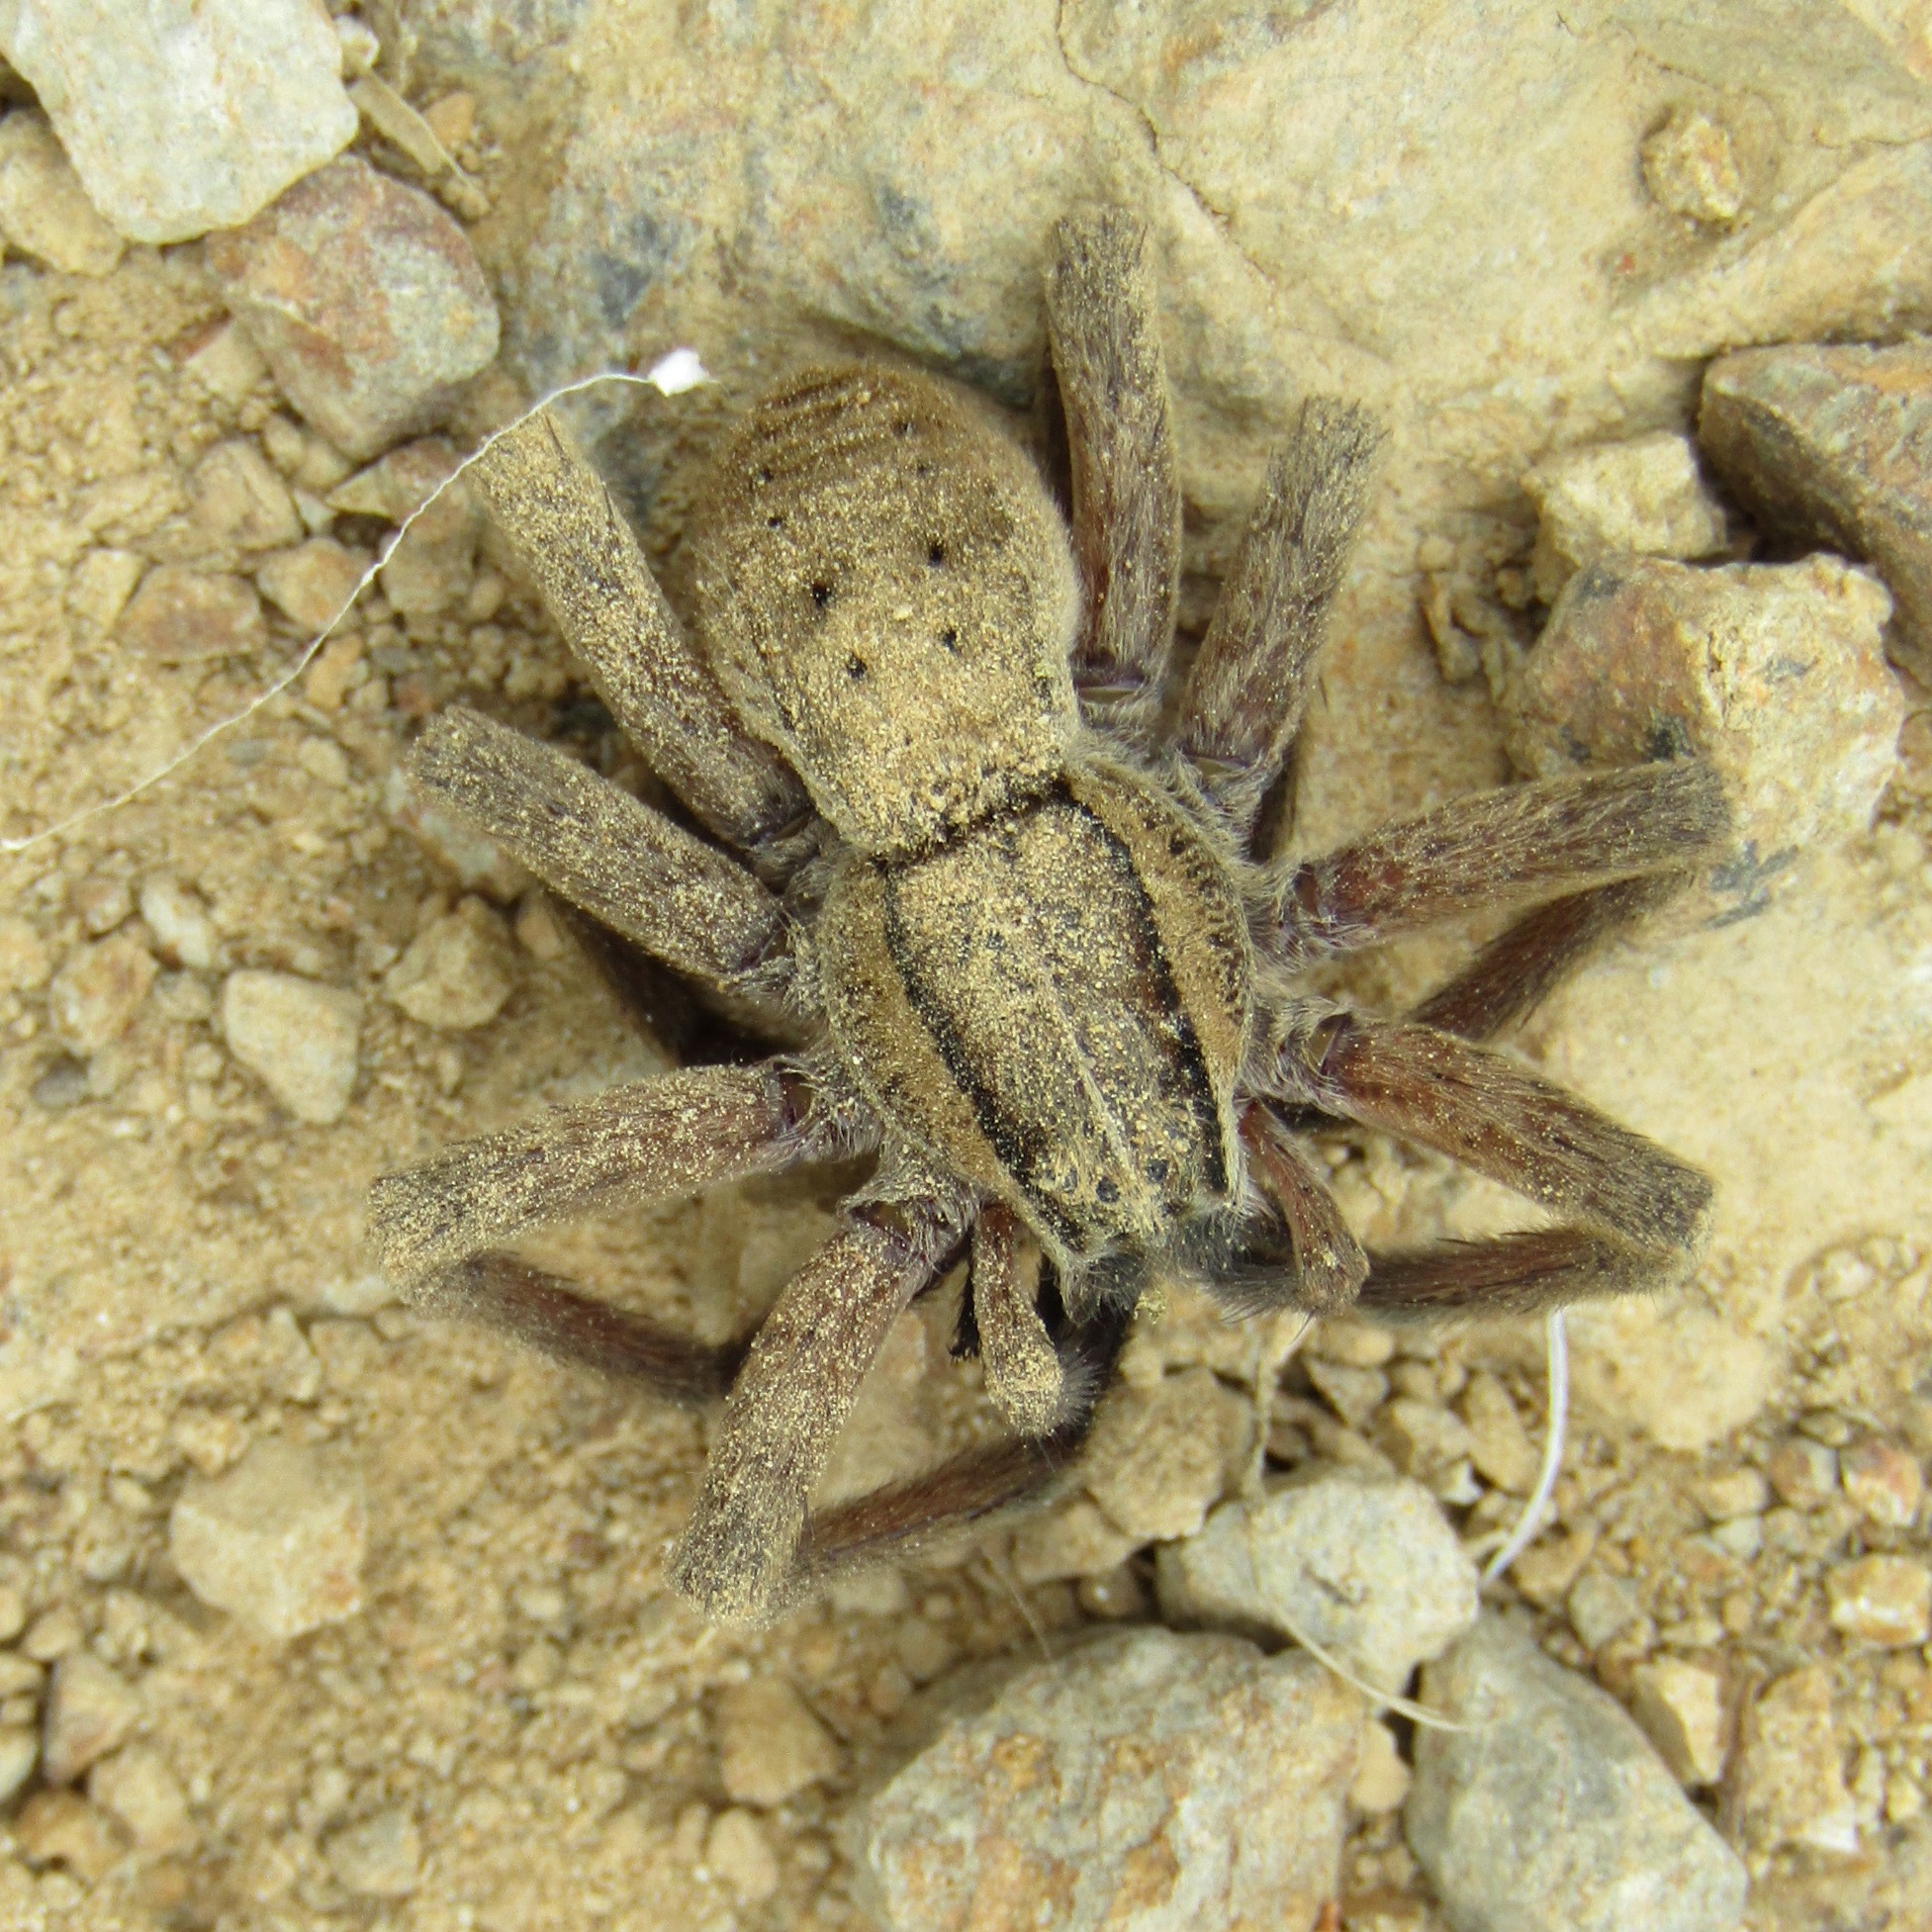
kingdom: Animalia
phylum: Arthropoda
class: Arachnida
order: Araneae
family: Pisauridae
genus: Dolomedes
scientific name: Dolomedes minor
